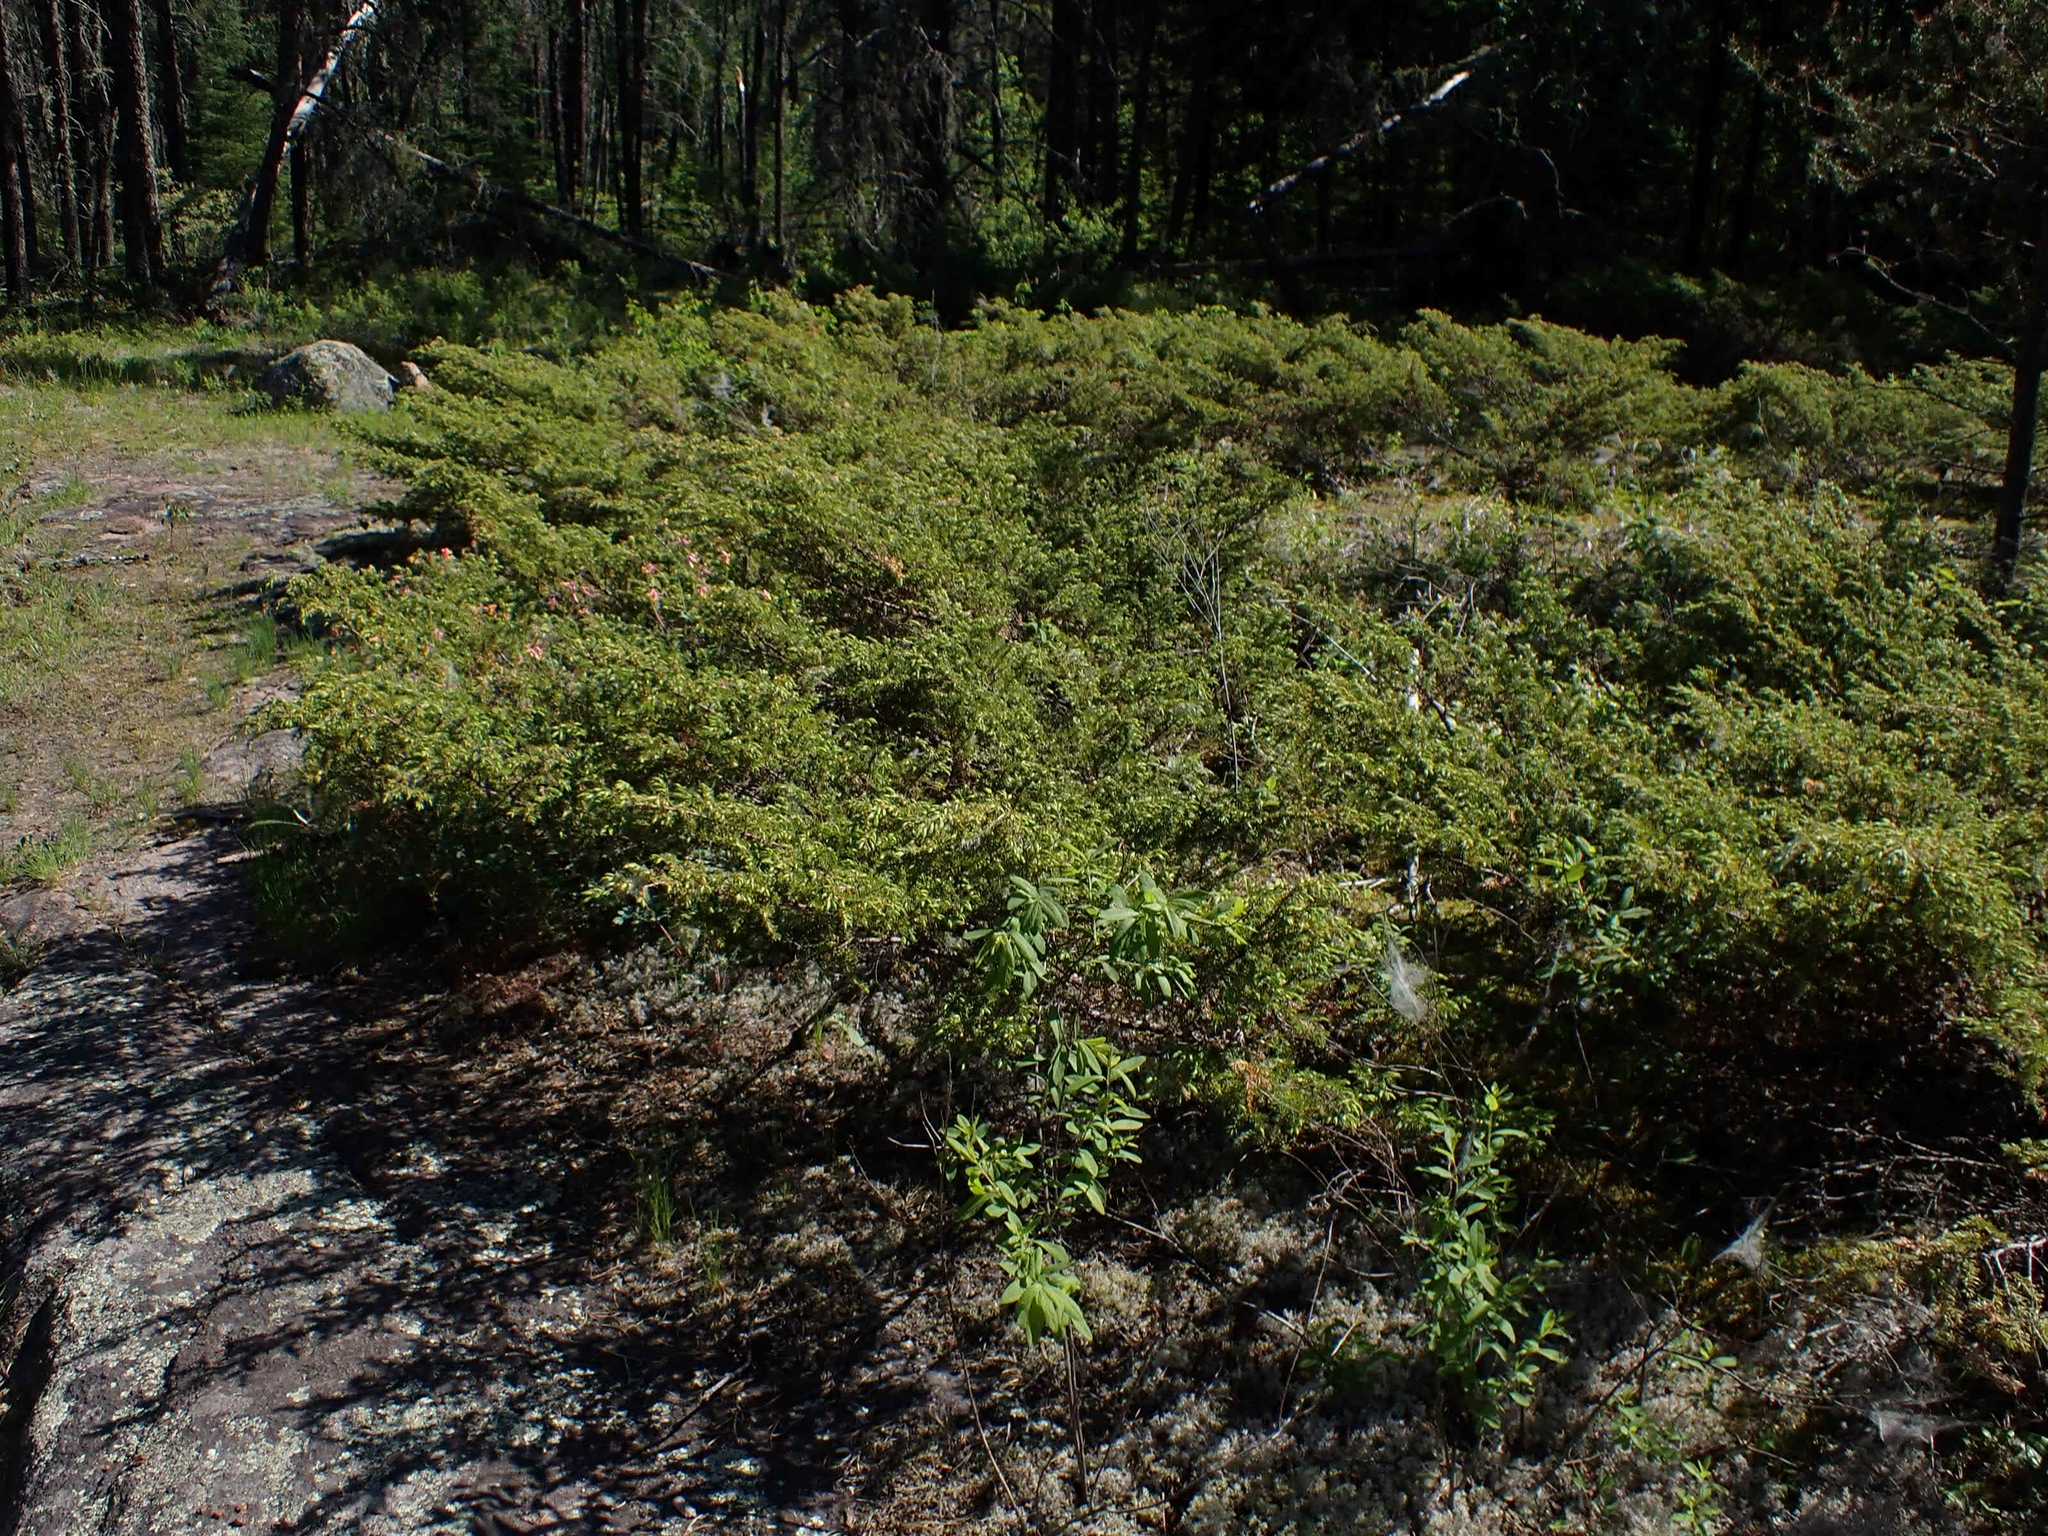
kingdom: Plantae
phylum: Tracheophyta
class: Pinopsida
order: Pinales
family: Cupressaceae
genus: Juniperus
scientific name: Juniperus communis
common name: Common juniper
